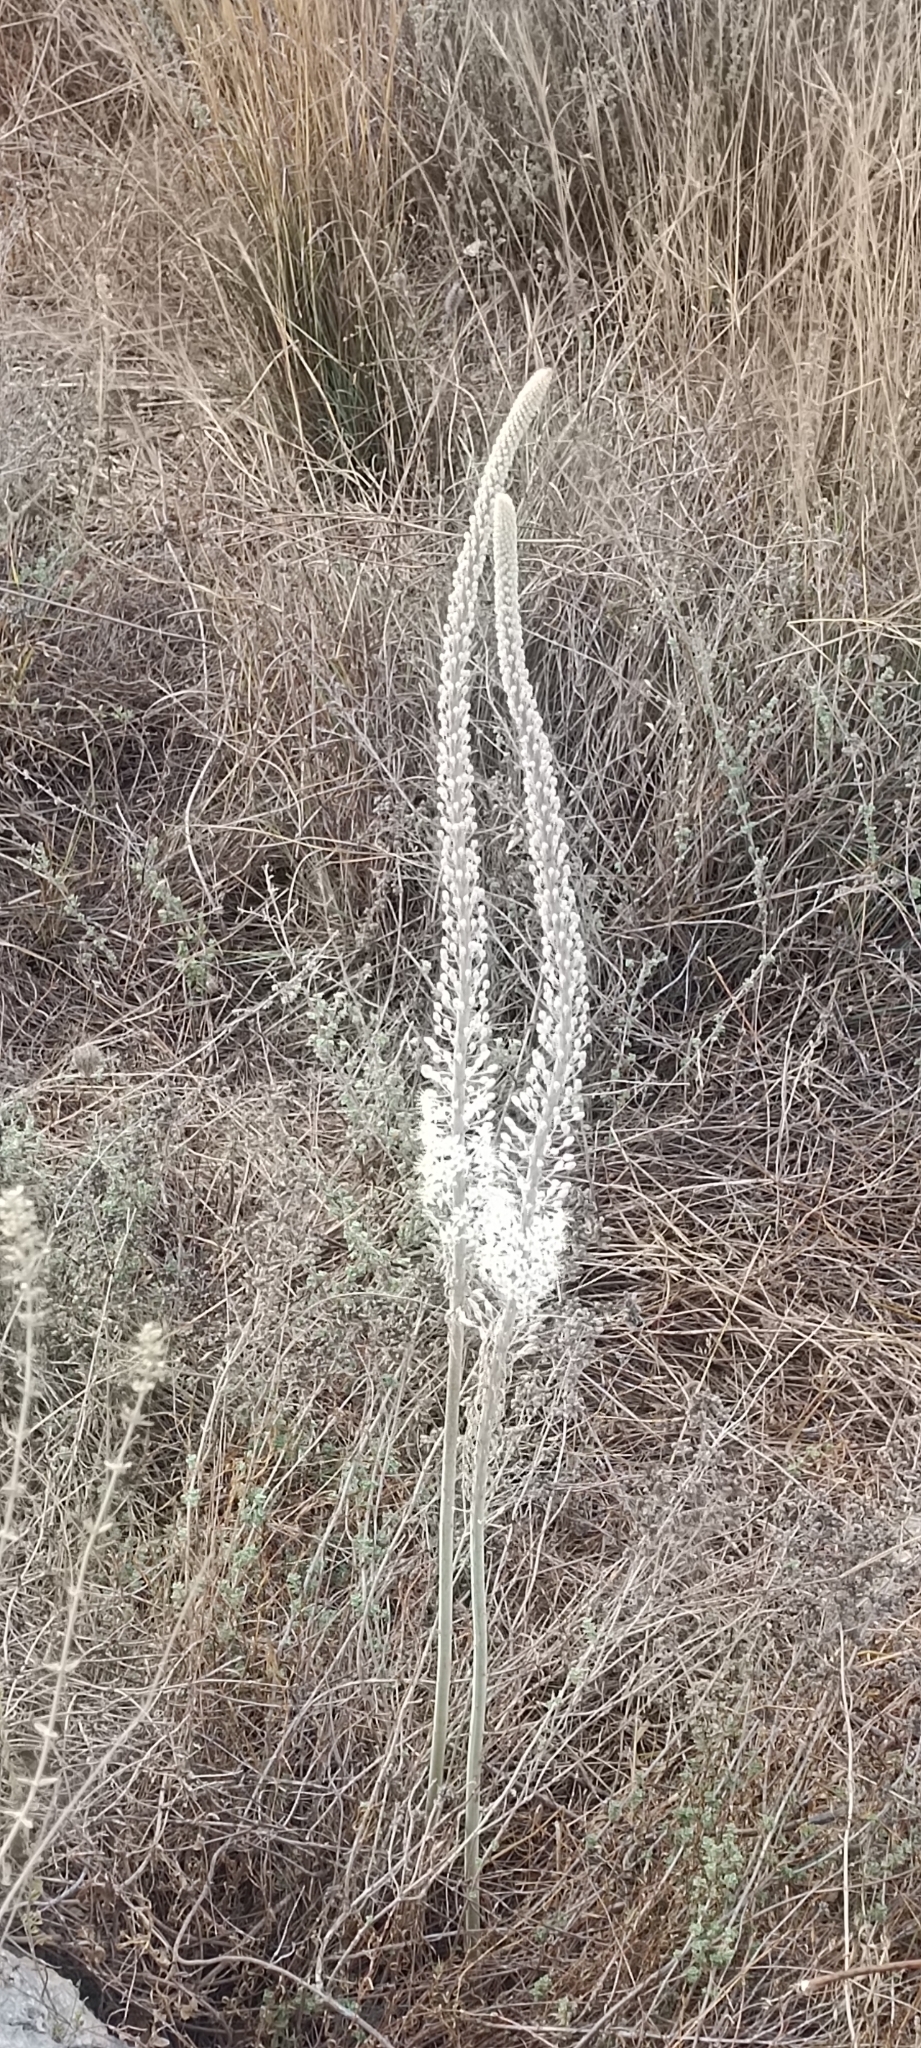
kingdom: Plantae
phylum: Tracheophyta
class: Liliopsida
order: Asparagales
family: Asparagaceae
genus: Drimia
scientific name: Drimia aphylla
